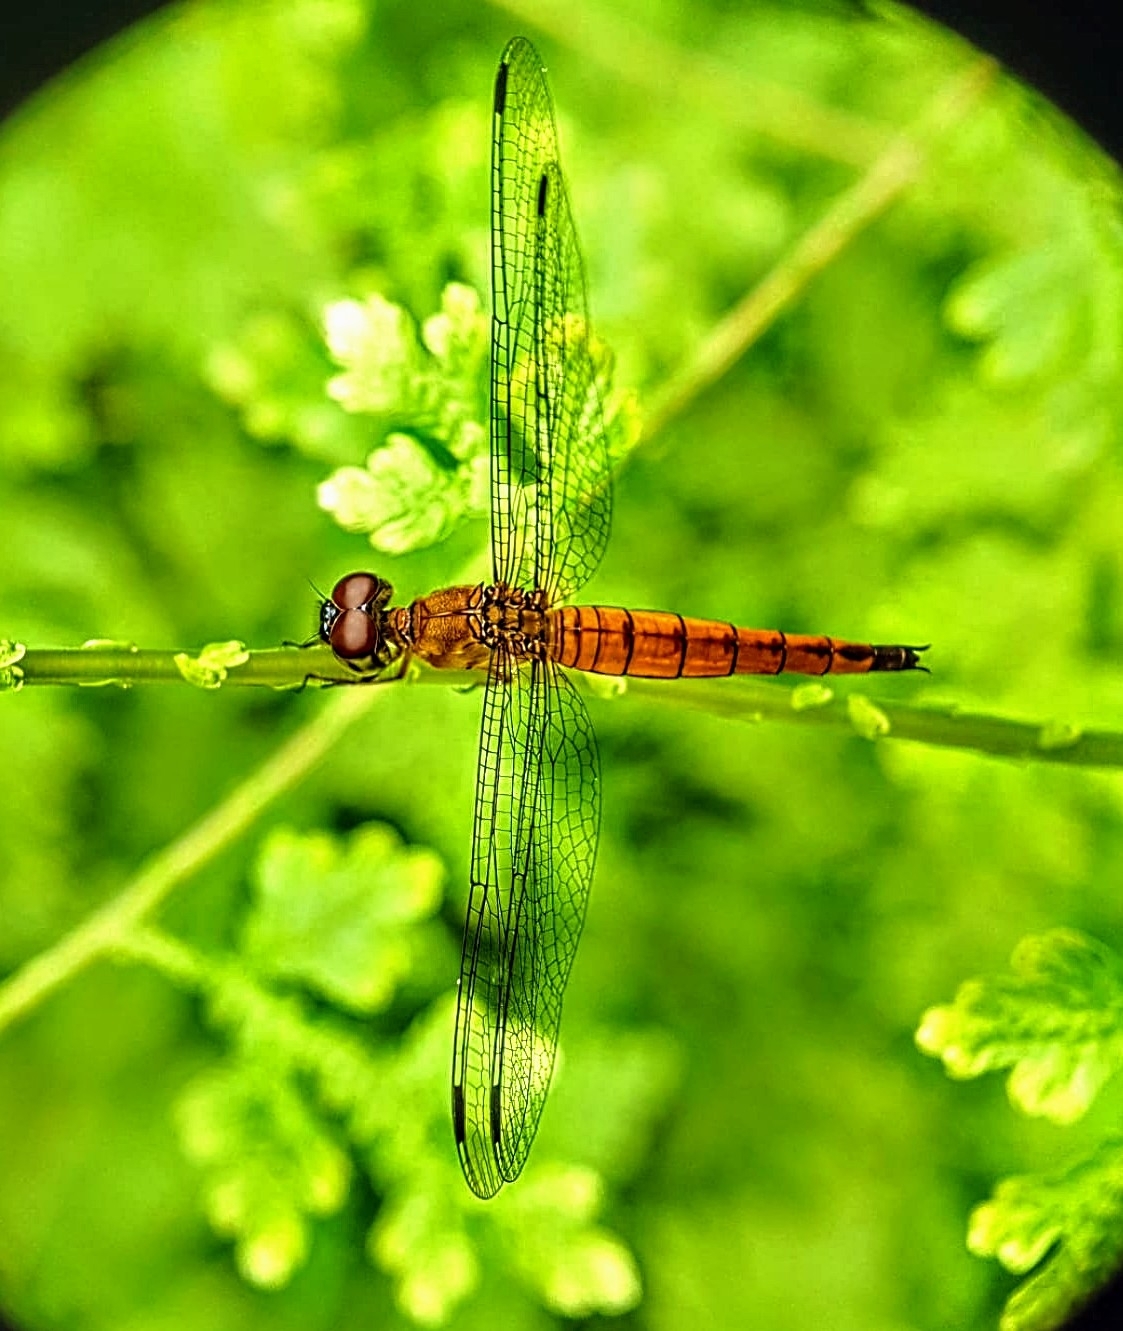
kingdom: Animalia
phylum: Arthropoda
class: Insecta
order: Odonata
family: Libellulidae
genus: Orchithemis
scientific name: Orchithemis pulcherrima
